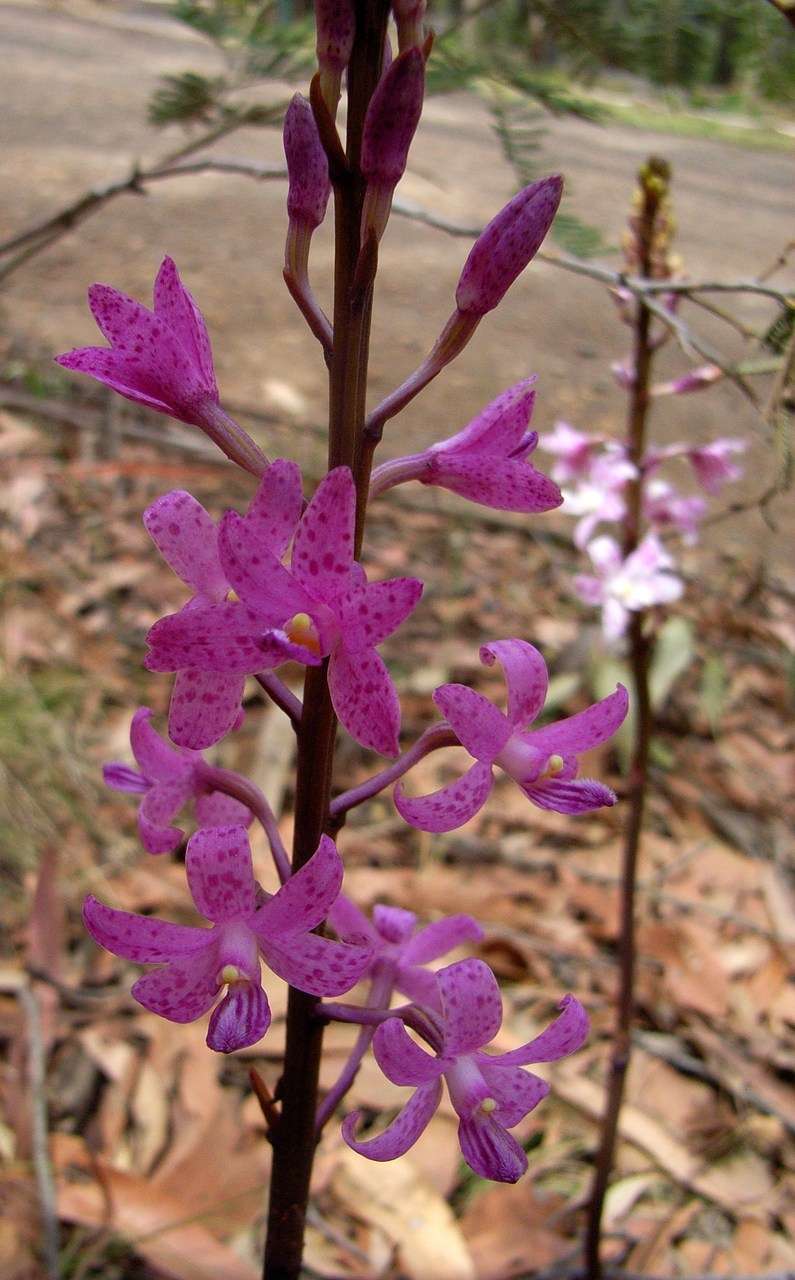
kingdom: Plantae
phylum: Tracheophyta
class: Liliopsida
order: Asparagales
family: Orchidaceae
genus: Dipodium
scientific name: Dipodium roseum
